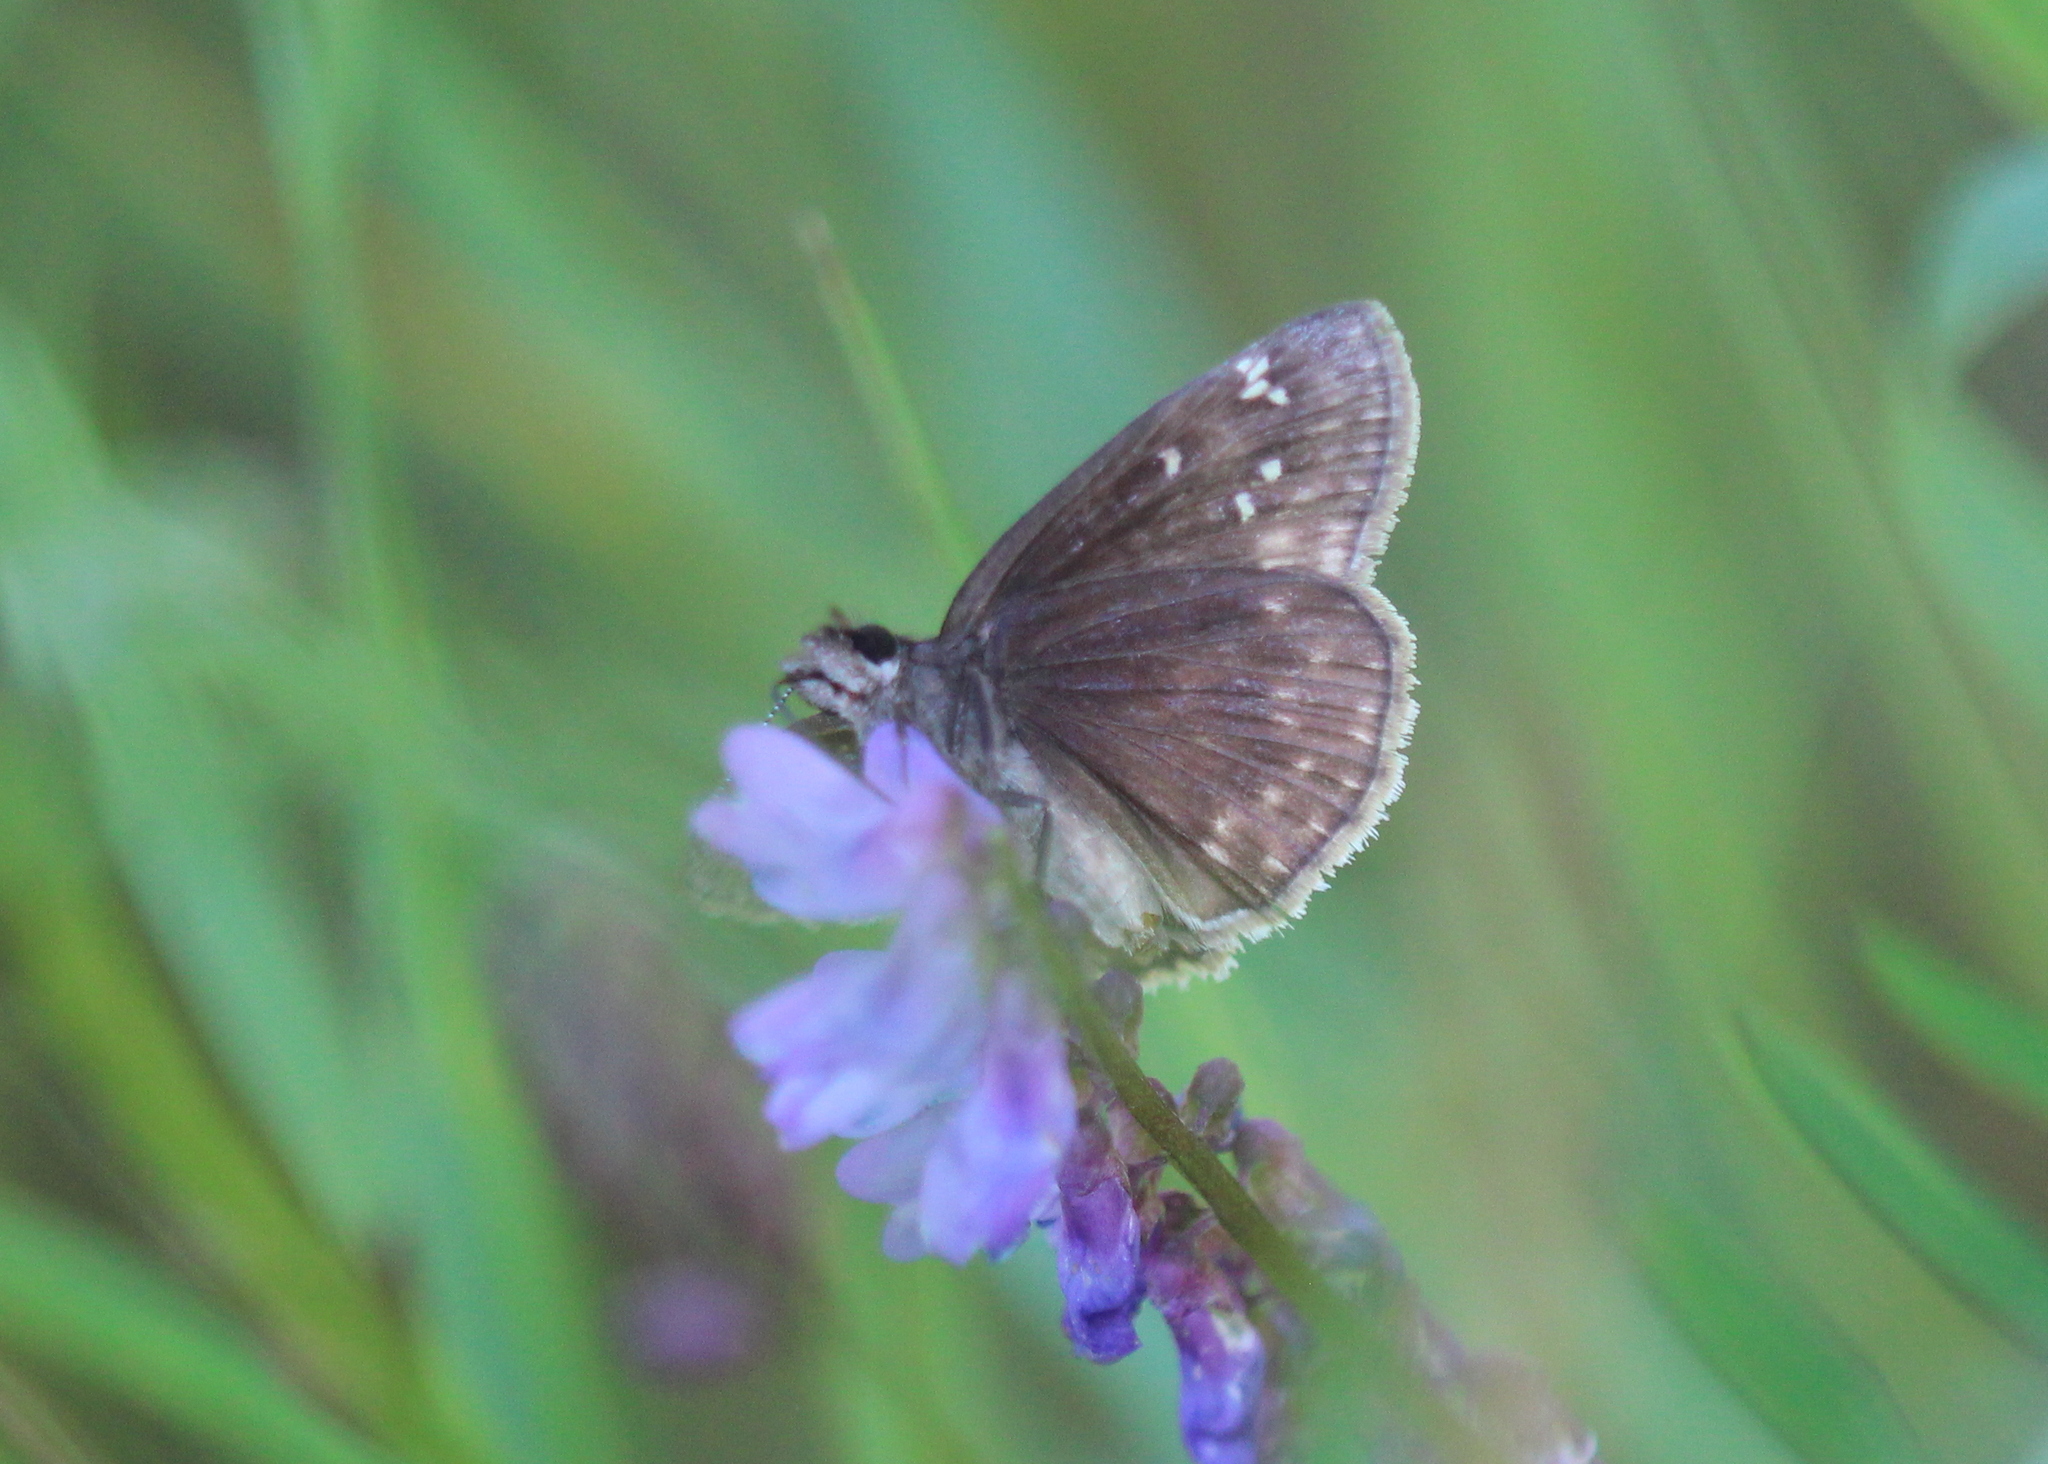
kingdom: Animalia
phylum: Arthropoda
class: Insecta
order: Lepidoptera
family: Hesperiidae
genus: Erynnis
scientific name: Erynnis baptisiae
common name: Wild indigo duskywing
